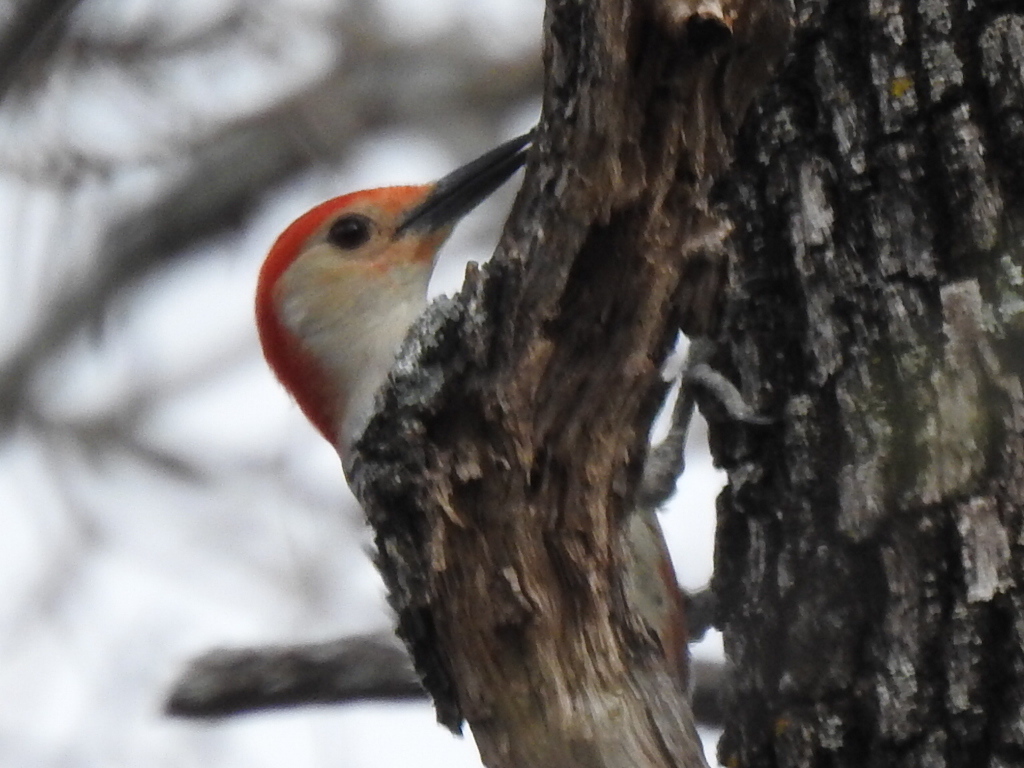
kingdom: Animalia
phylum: Chordata
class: Aves
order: Piciformes
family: Picidae
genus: Melanerpes
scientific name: Melanerpes carolinus
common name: Red-bellied woodpecker
